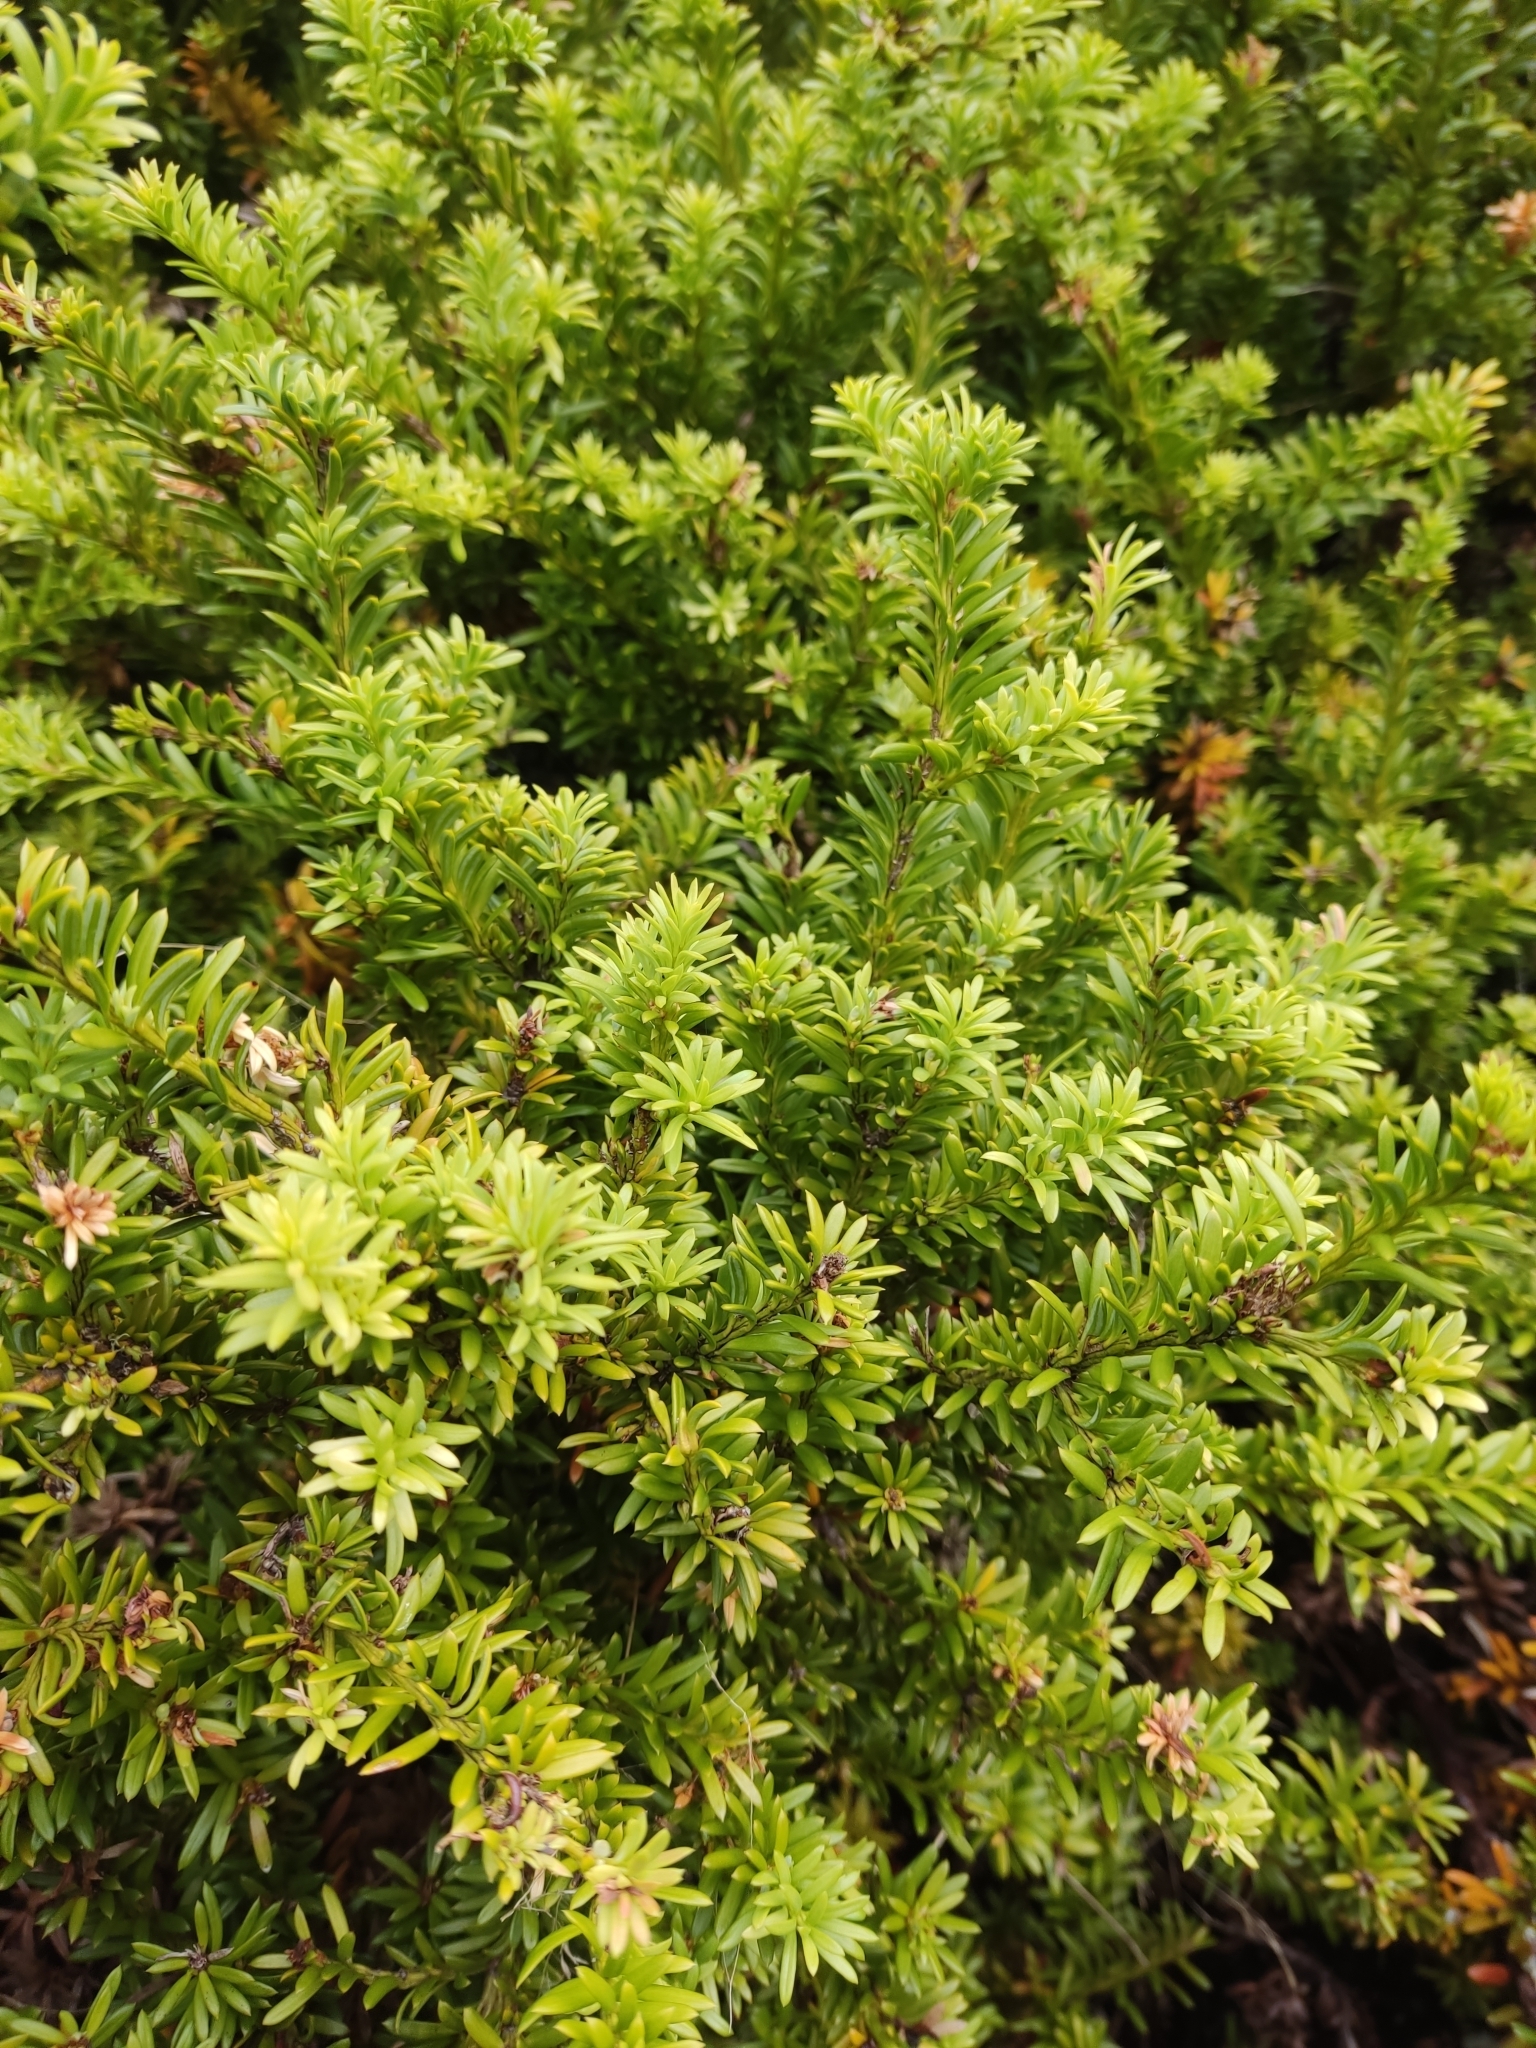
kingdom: Plantae
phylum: Tracheophyta
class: Pinopsida
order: Pinales
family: Podocarpaceae
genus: Podocarpus
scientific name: Podocarpus nivalis
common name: Alpine totara
